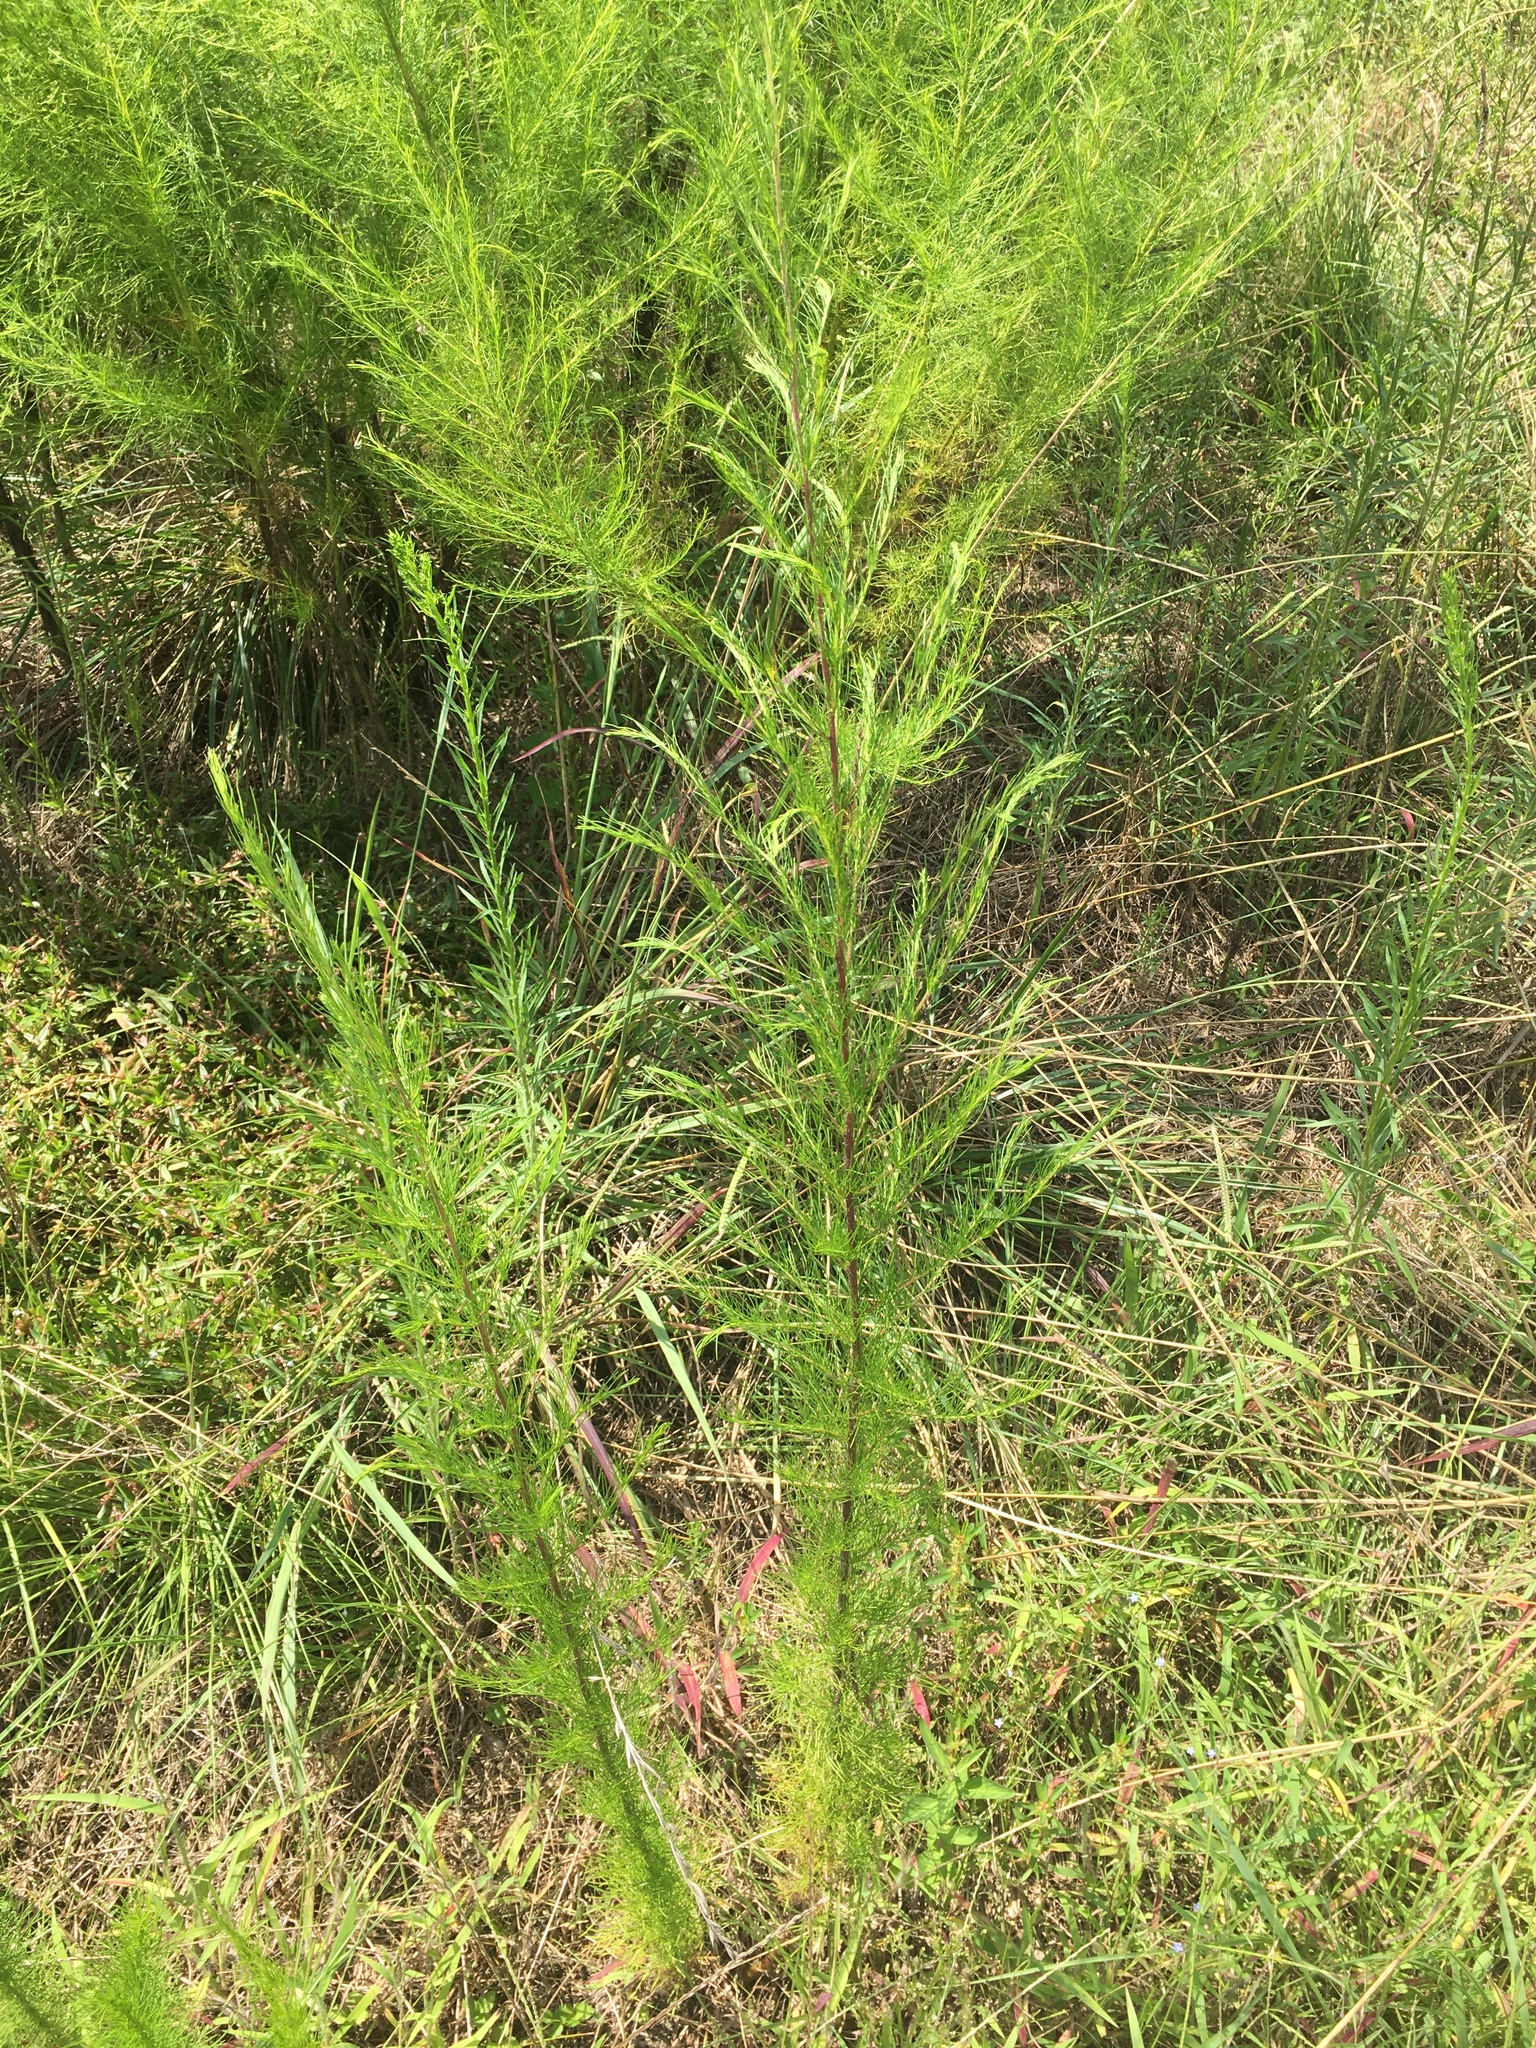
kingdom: Plantae
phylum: Tracheophyta
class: Magnoliopsida
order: Asterales
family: Asteraceae
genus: Eupatorium
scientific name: Eupatorium capillifolium
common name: Dog-fennel
